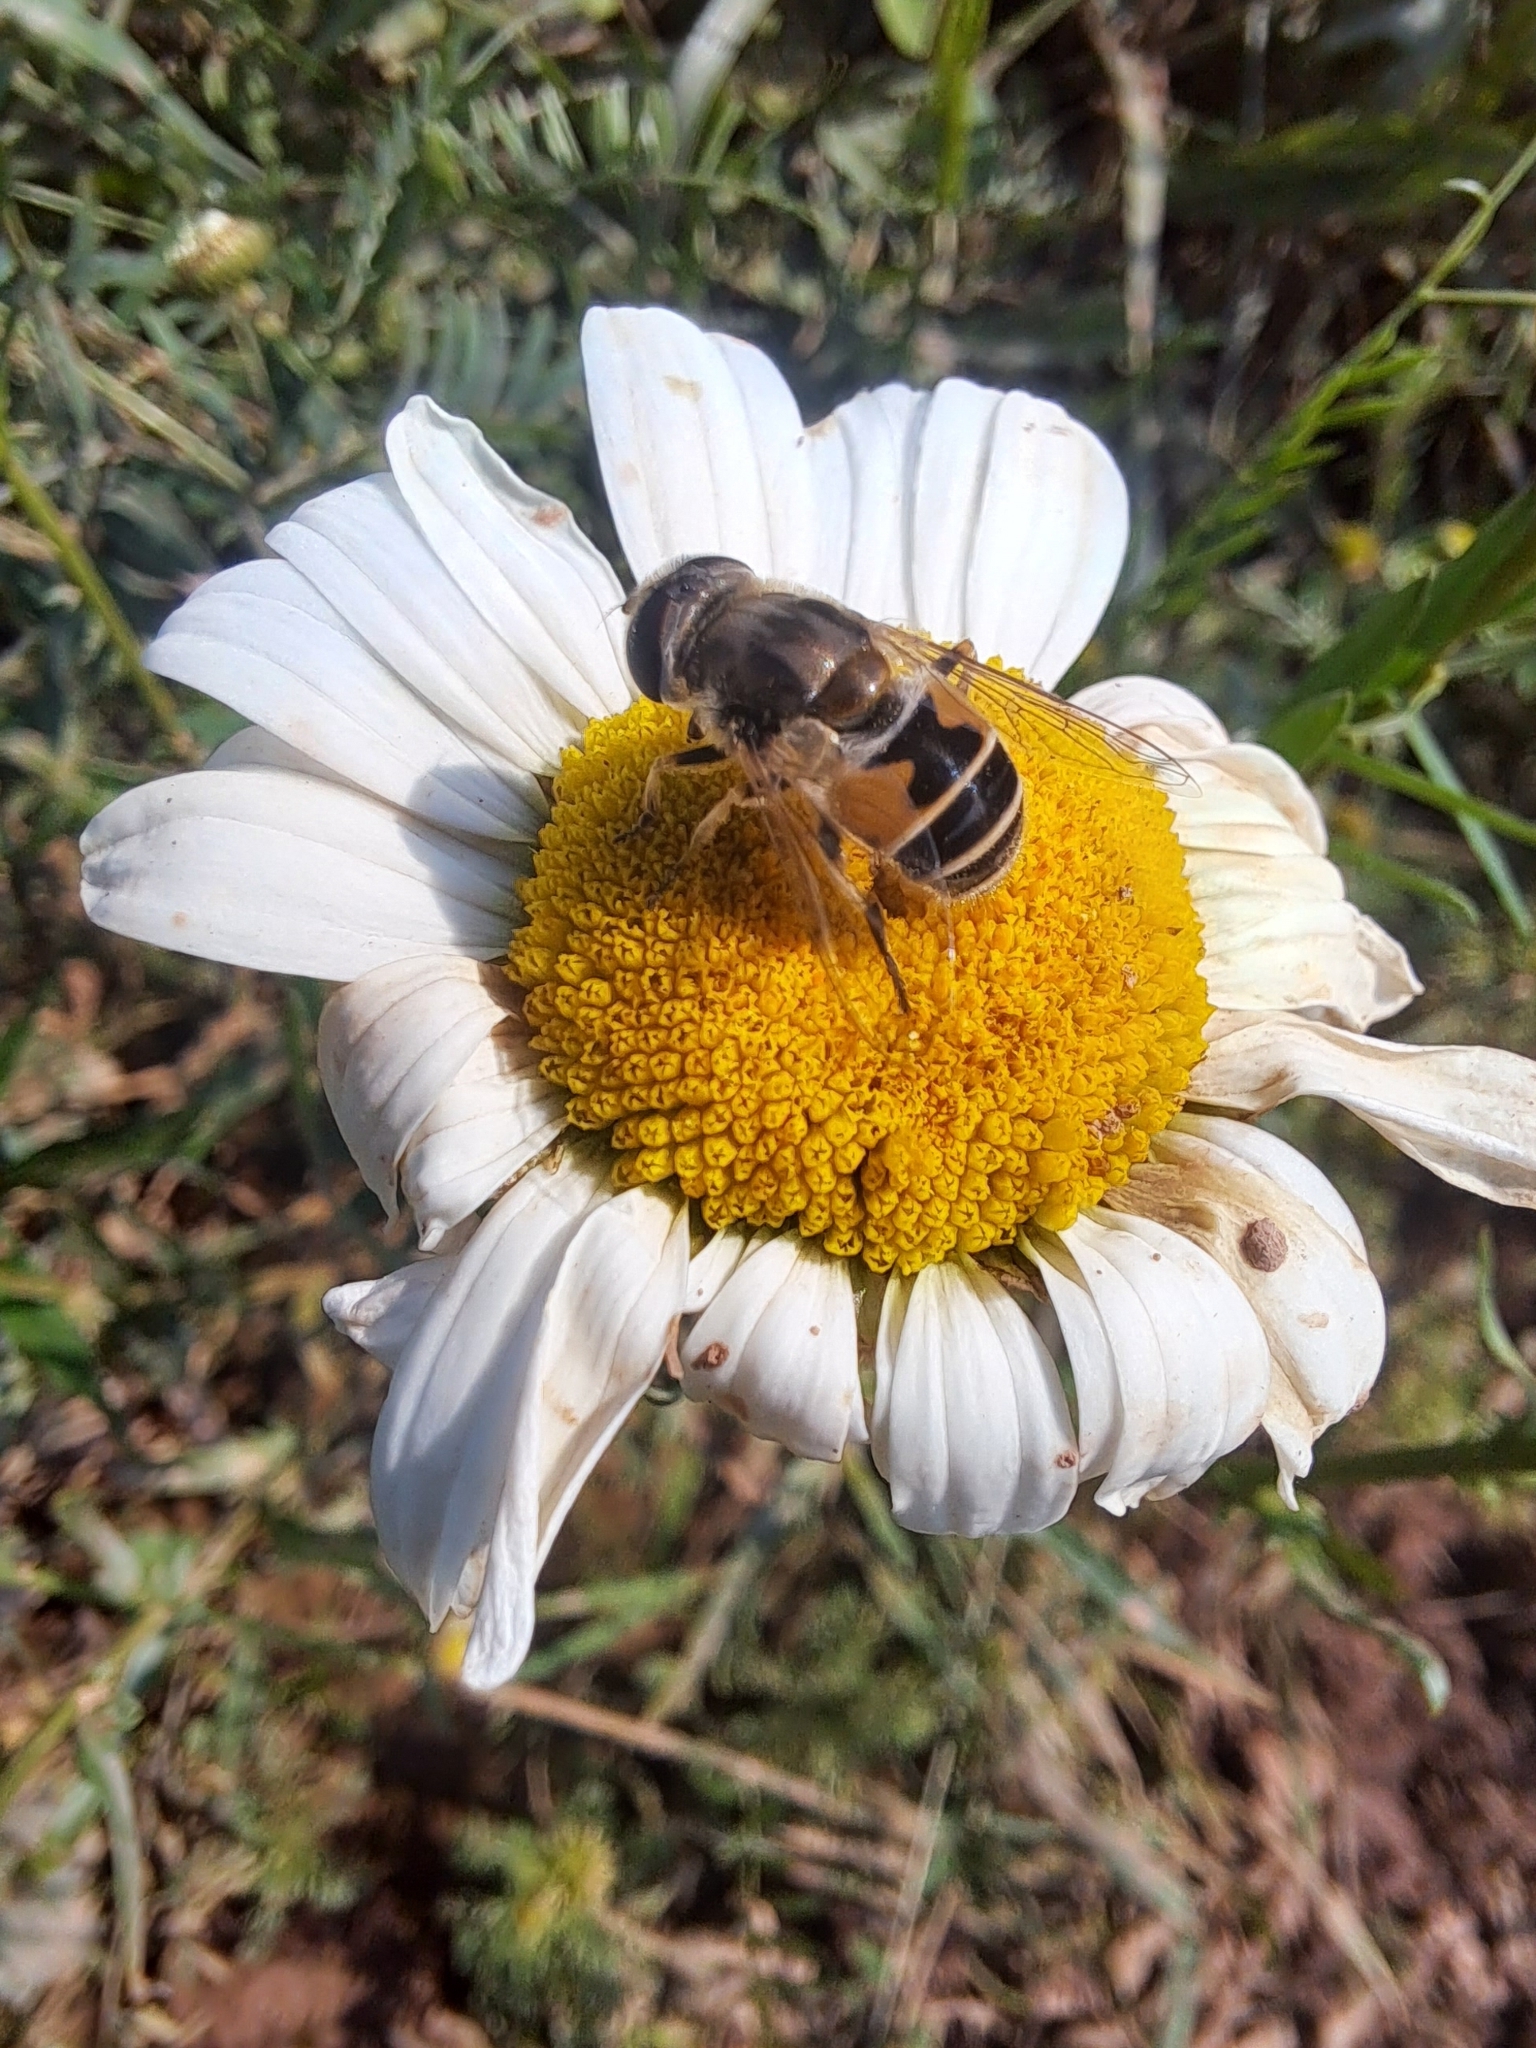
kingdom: Animalia
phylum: Arthropoda
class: Insecta
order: Diptera
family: Syrphidae
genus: Eristalis
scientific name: Eristalis arbustorum
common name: Hover fly
